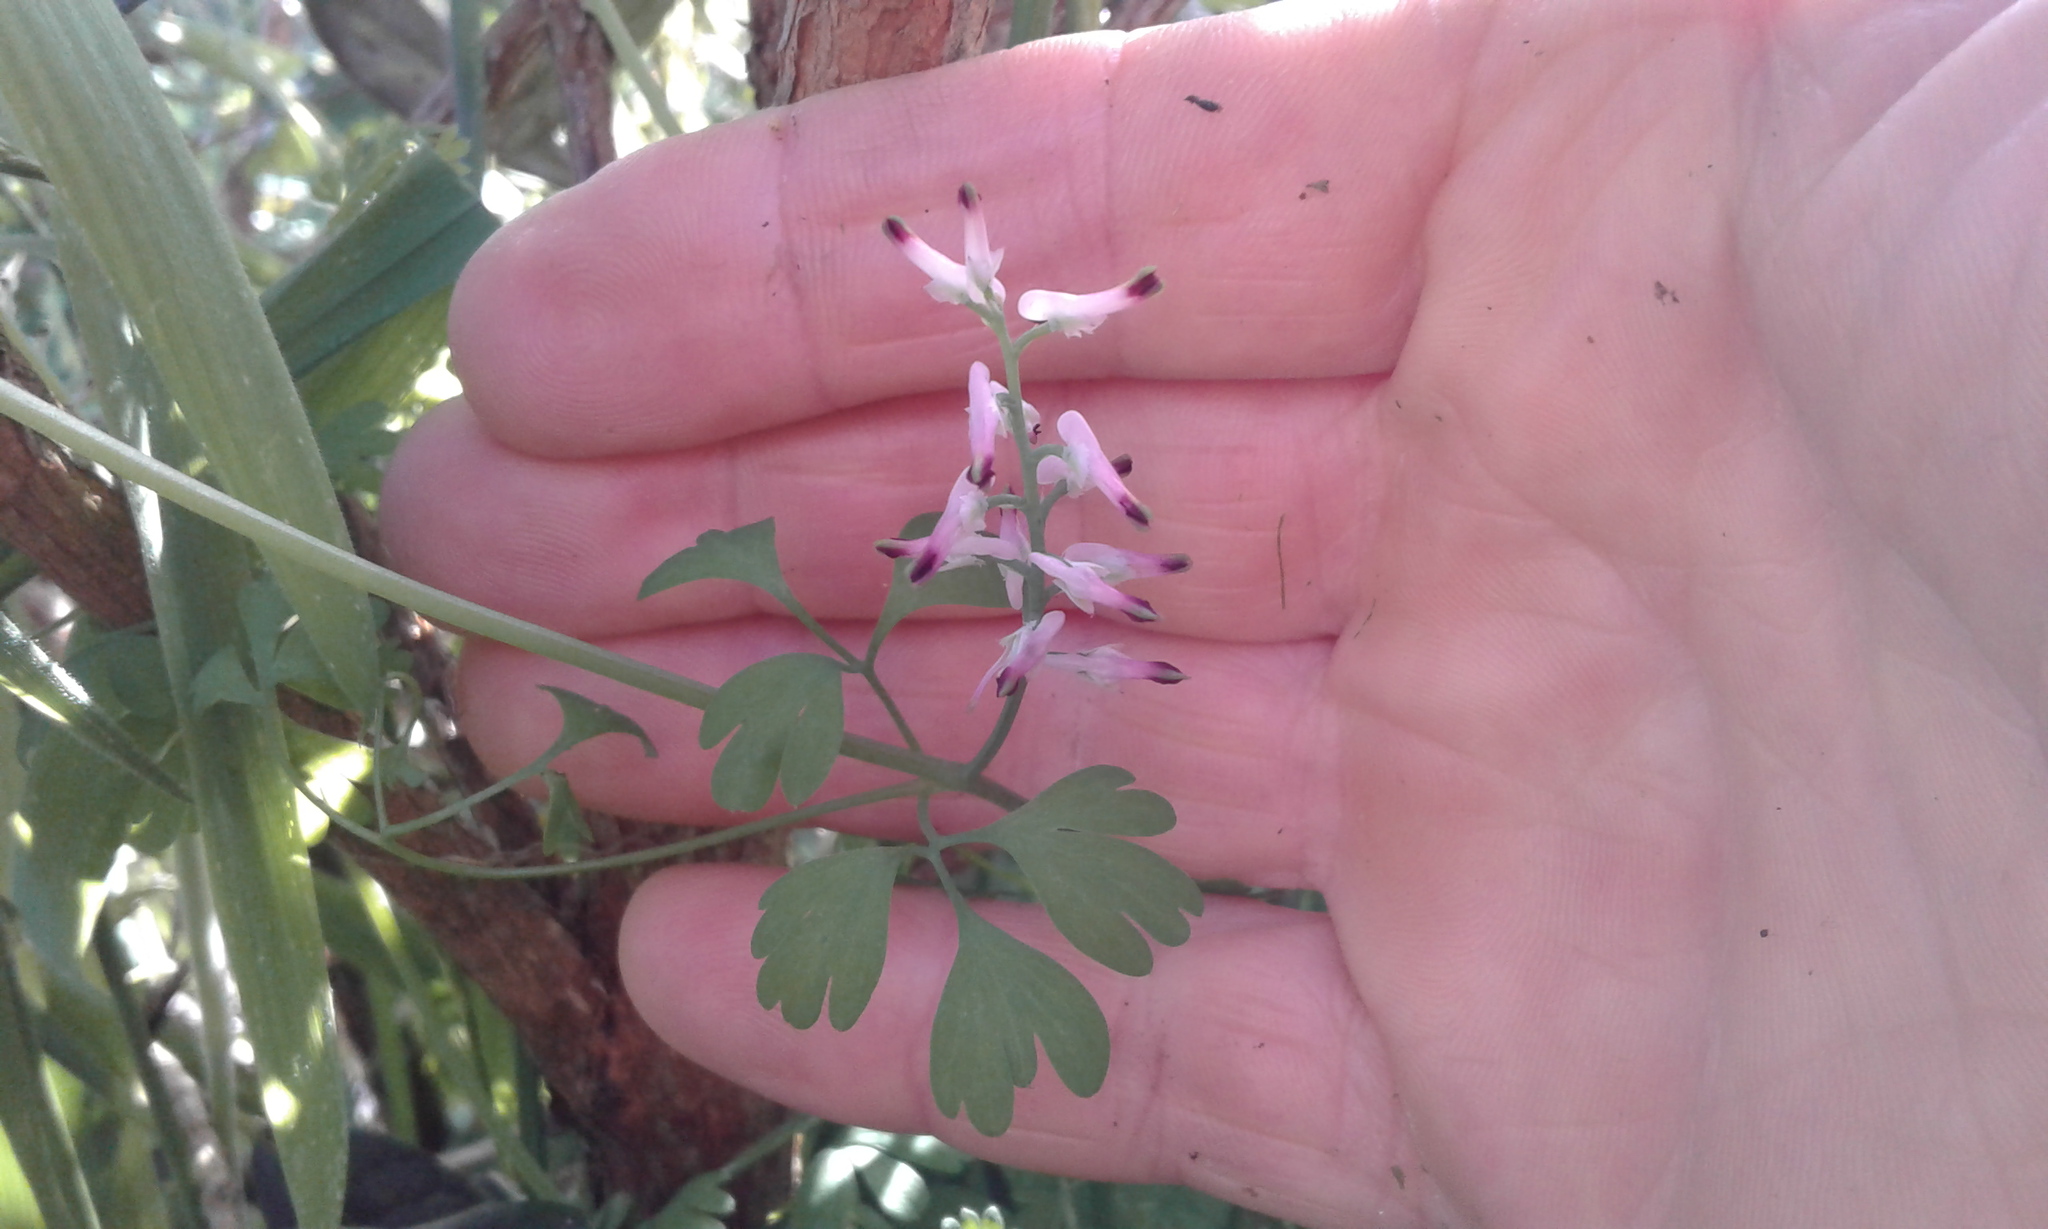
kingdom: Plantae
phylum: Tracheophyta
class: Magnoliopsida
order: Ranunculales
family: Papaveraceae
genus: Fumaria
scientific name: Fumaria capreolata
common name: White ramping-fumitory
